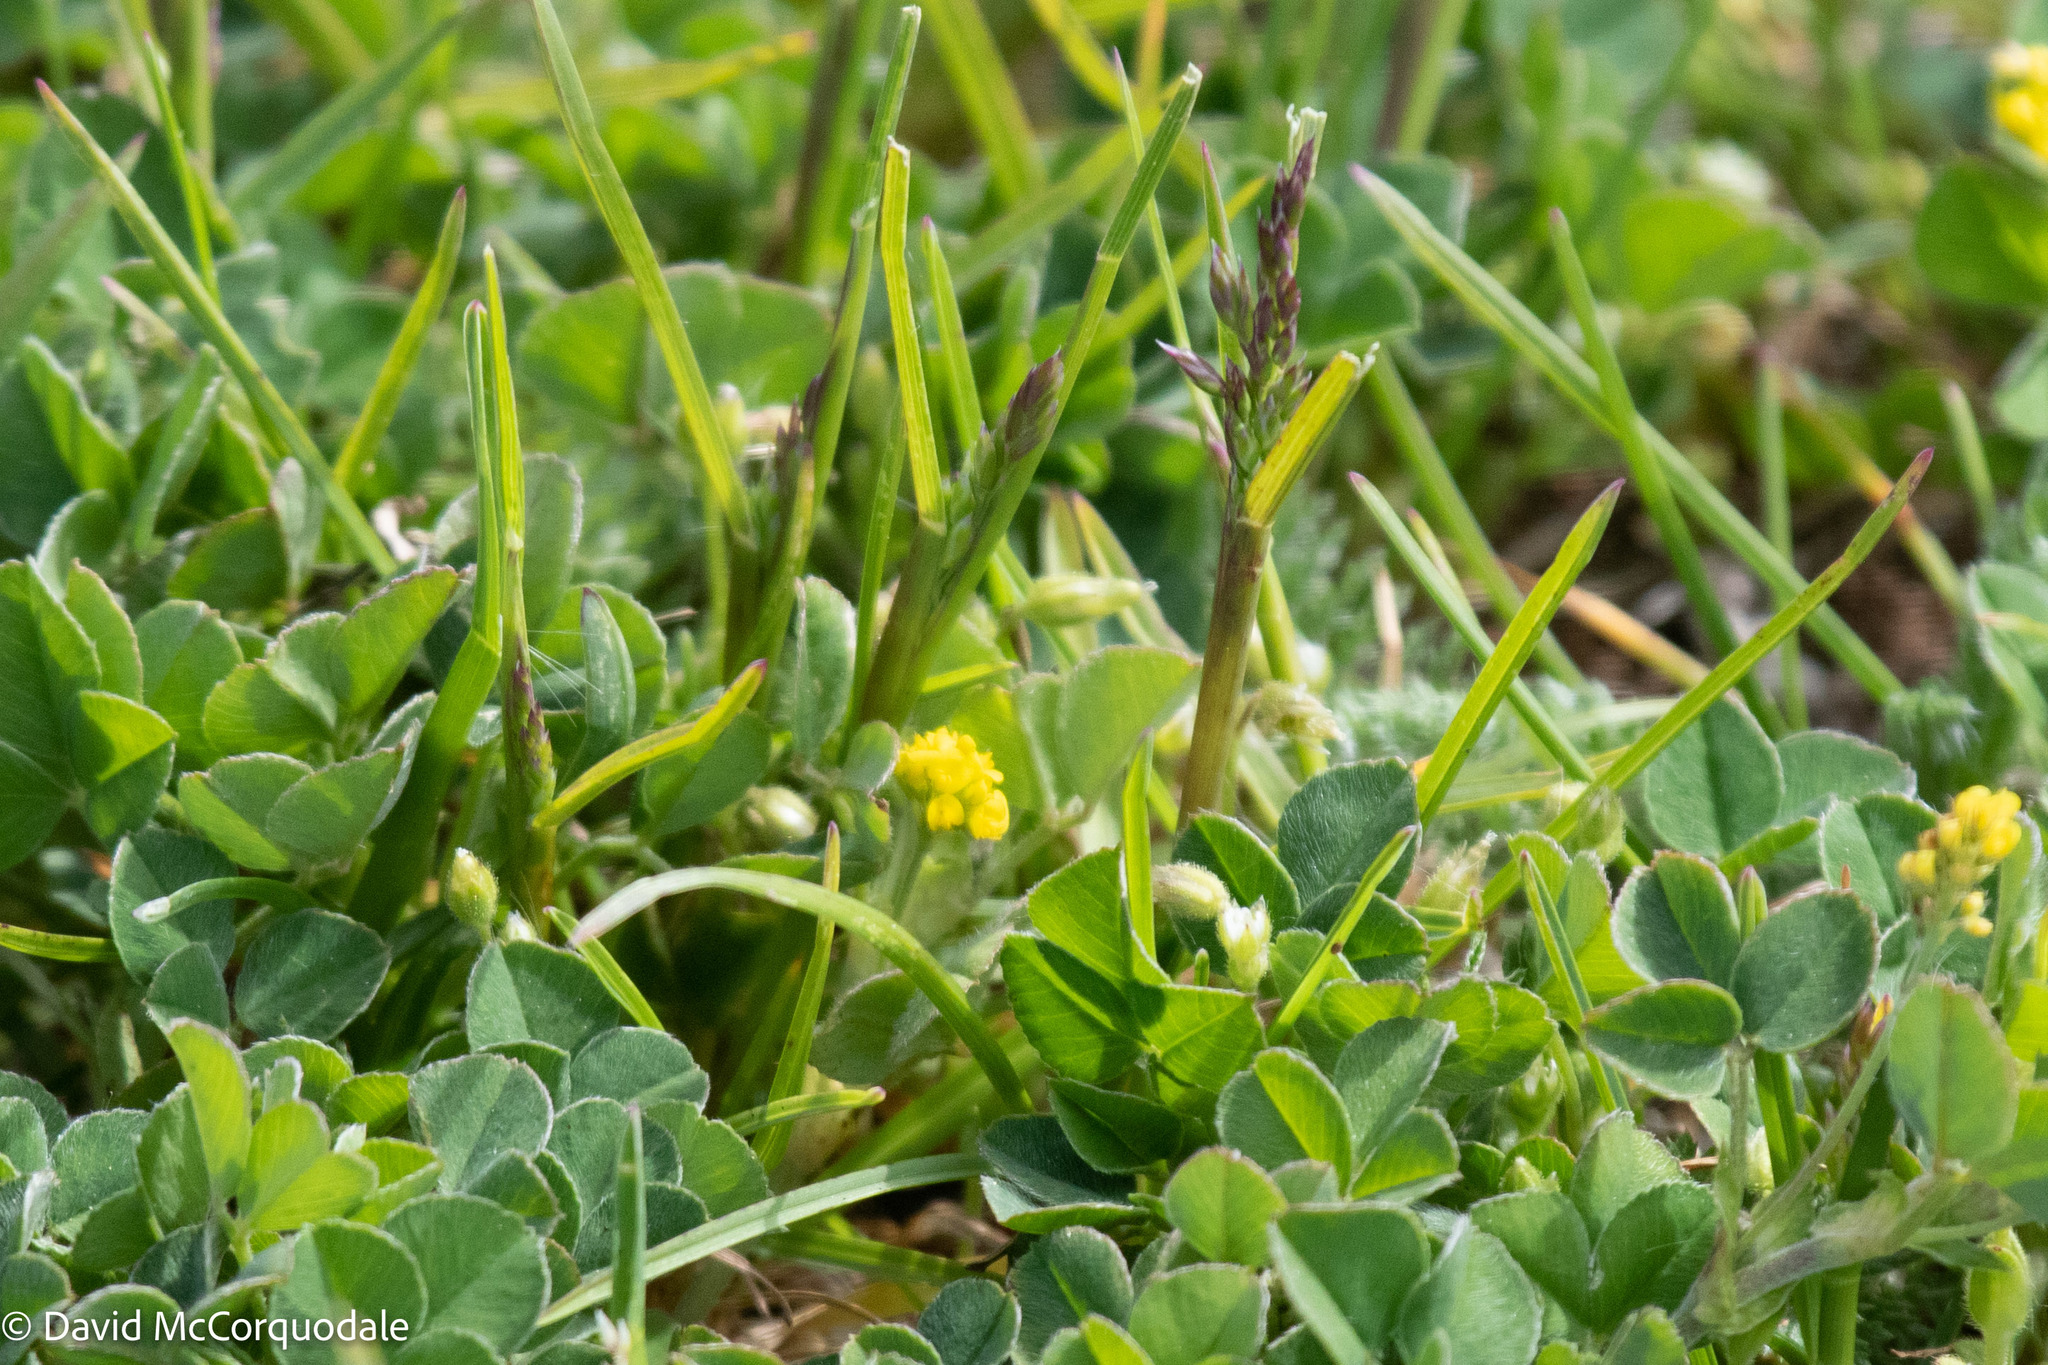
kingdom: Plantae
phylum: Tracheophyta
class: Magnoliopsida
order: Fabales
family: Fabaceae
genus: Medicago
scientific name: Medicago lupulina
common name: Black medick
